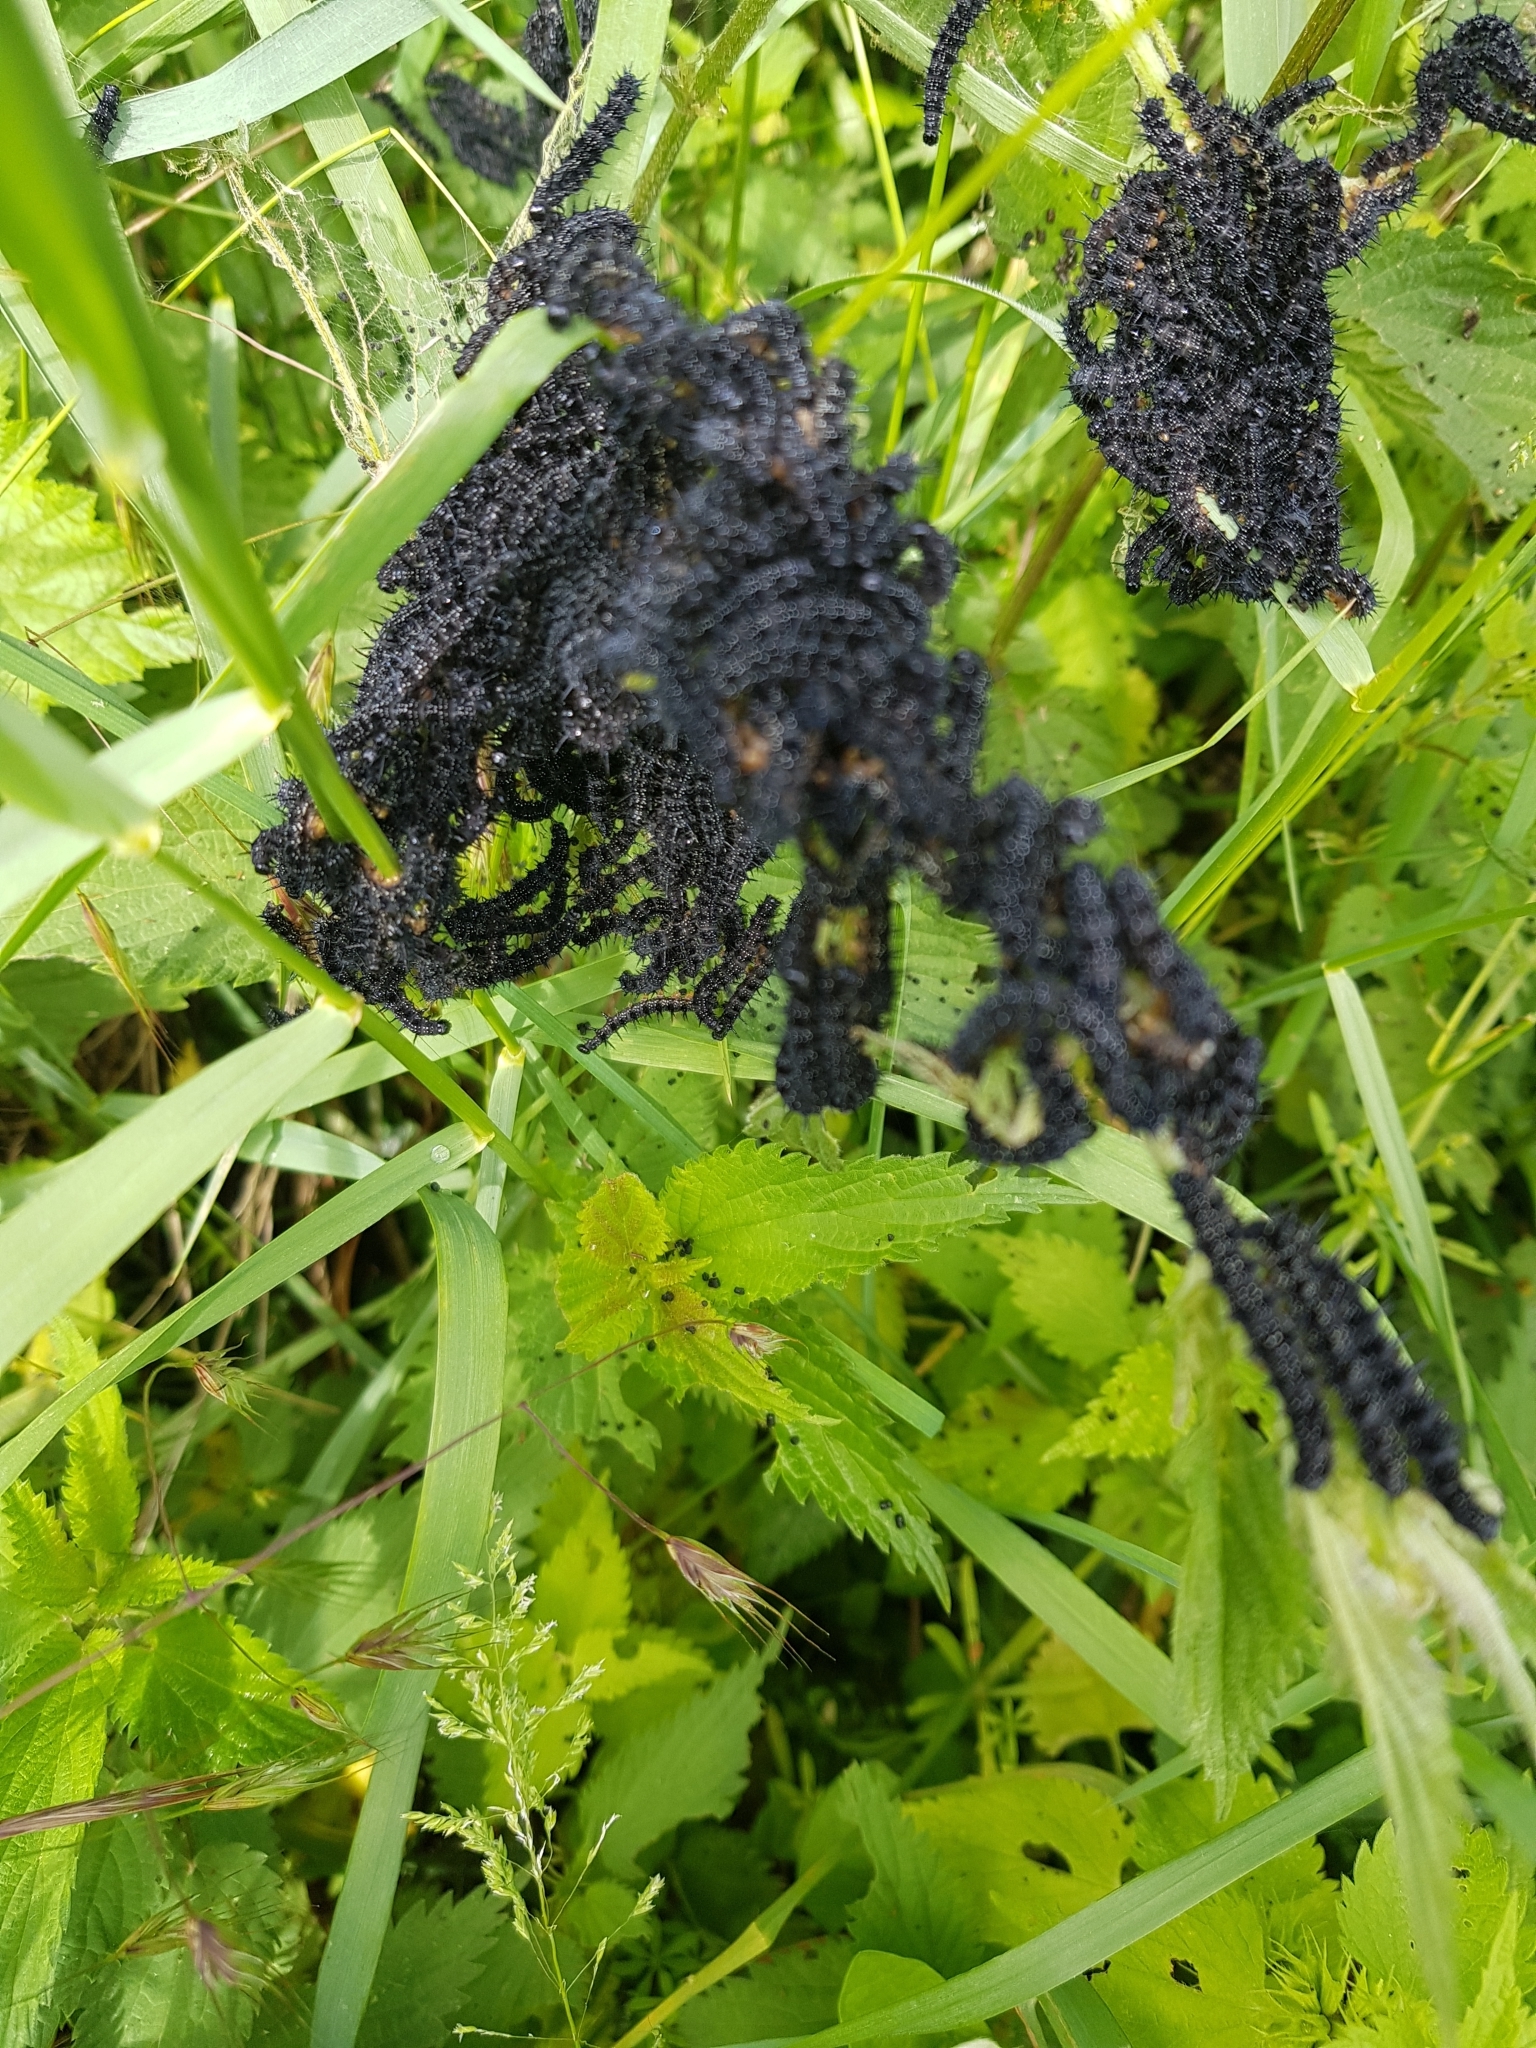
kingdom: Animalia
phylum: Arthropoda
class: Insecta
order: Lepidoptera
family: Nymphalidae
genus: Aglais
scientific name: Aglais io
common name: Peacock
